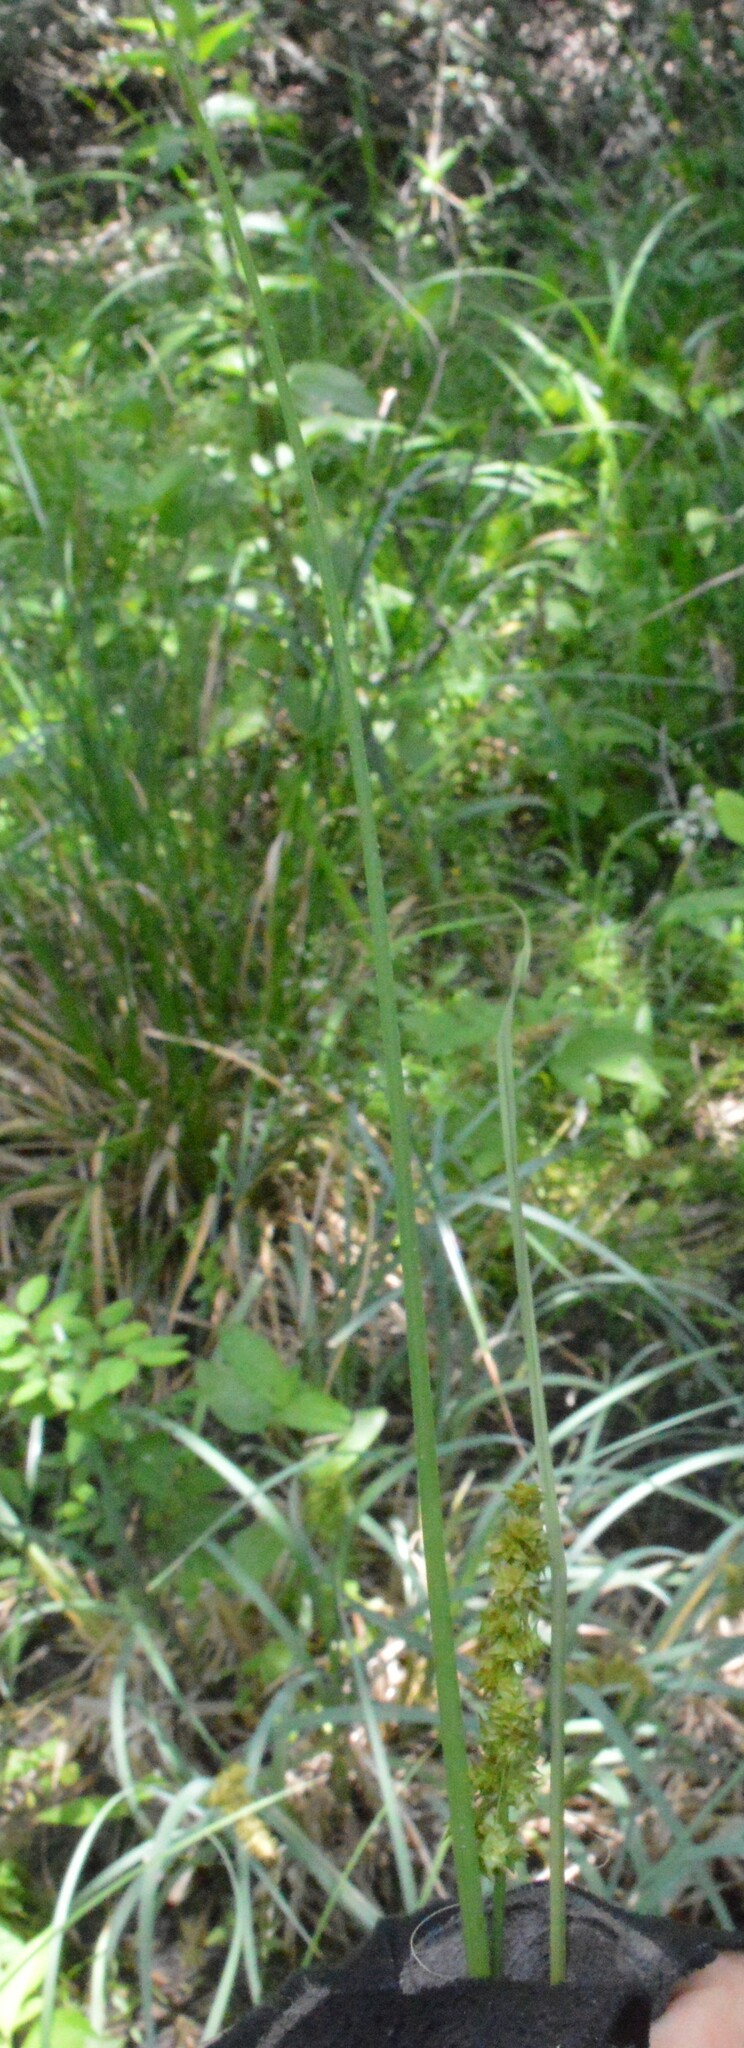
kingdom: Plantae
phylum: Tracheophyta
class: Liliopsida
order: Poales
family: Cyperaceae
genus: Carex
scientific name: Carex vulpinoidea
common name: American fox-sedge
